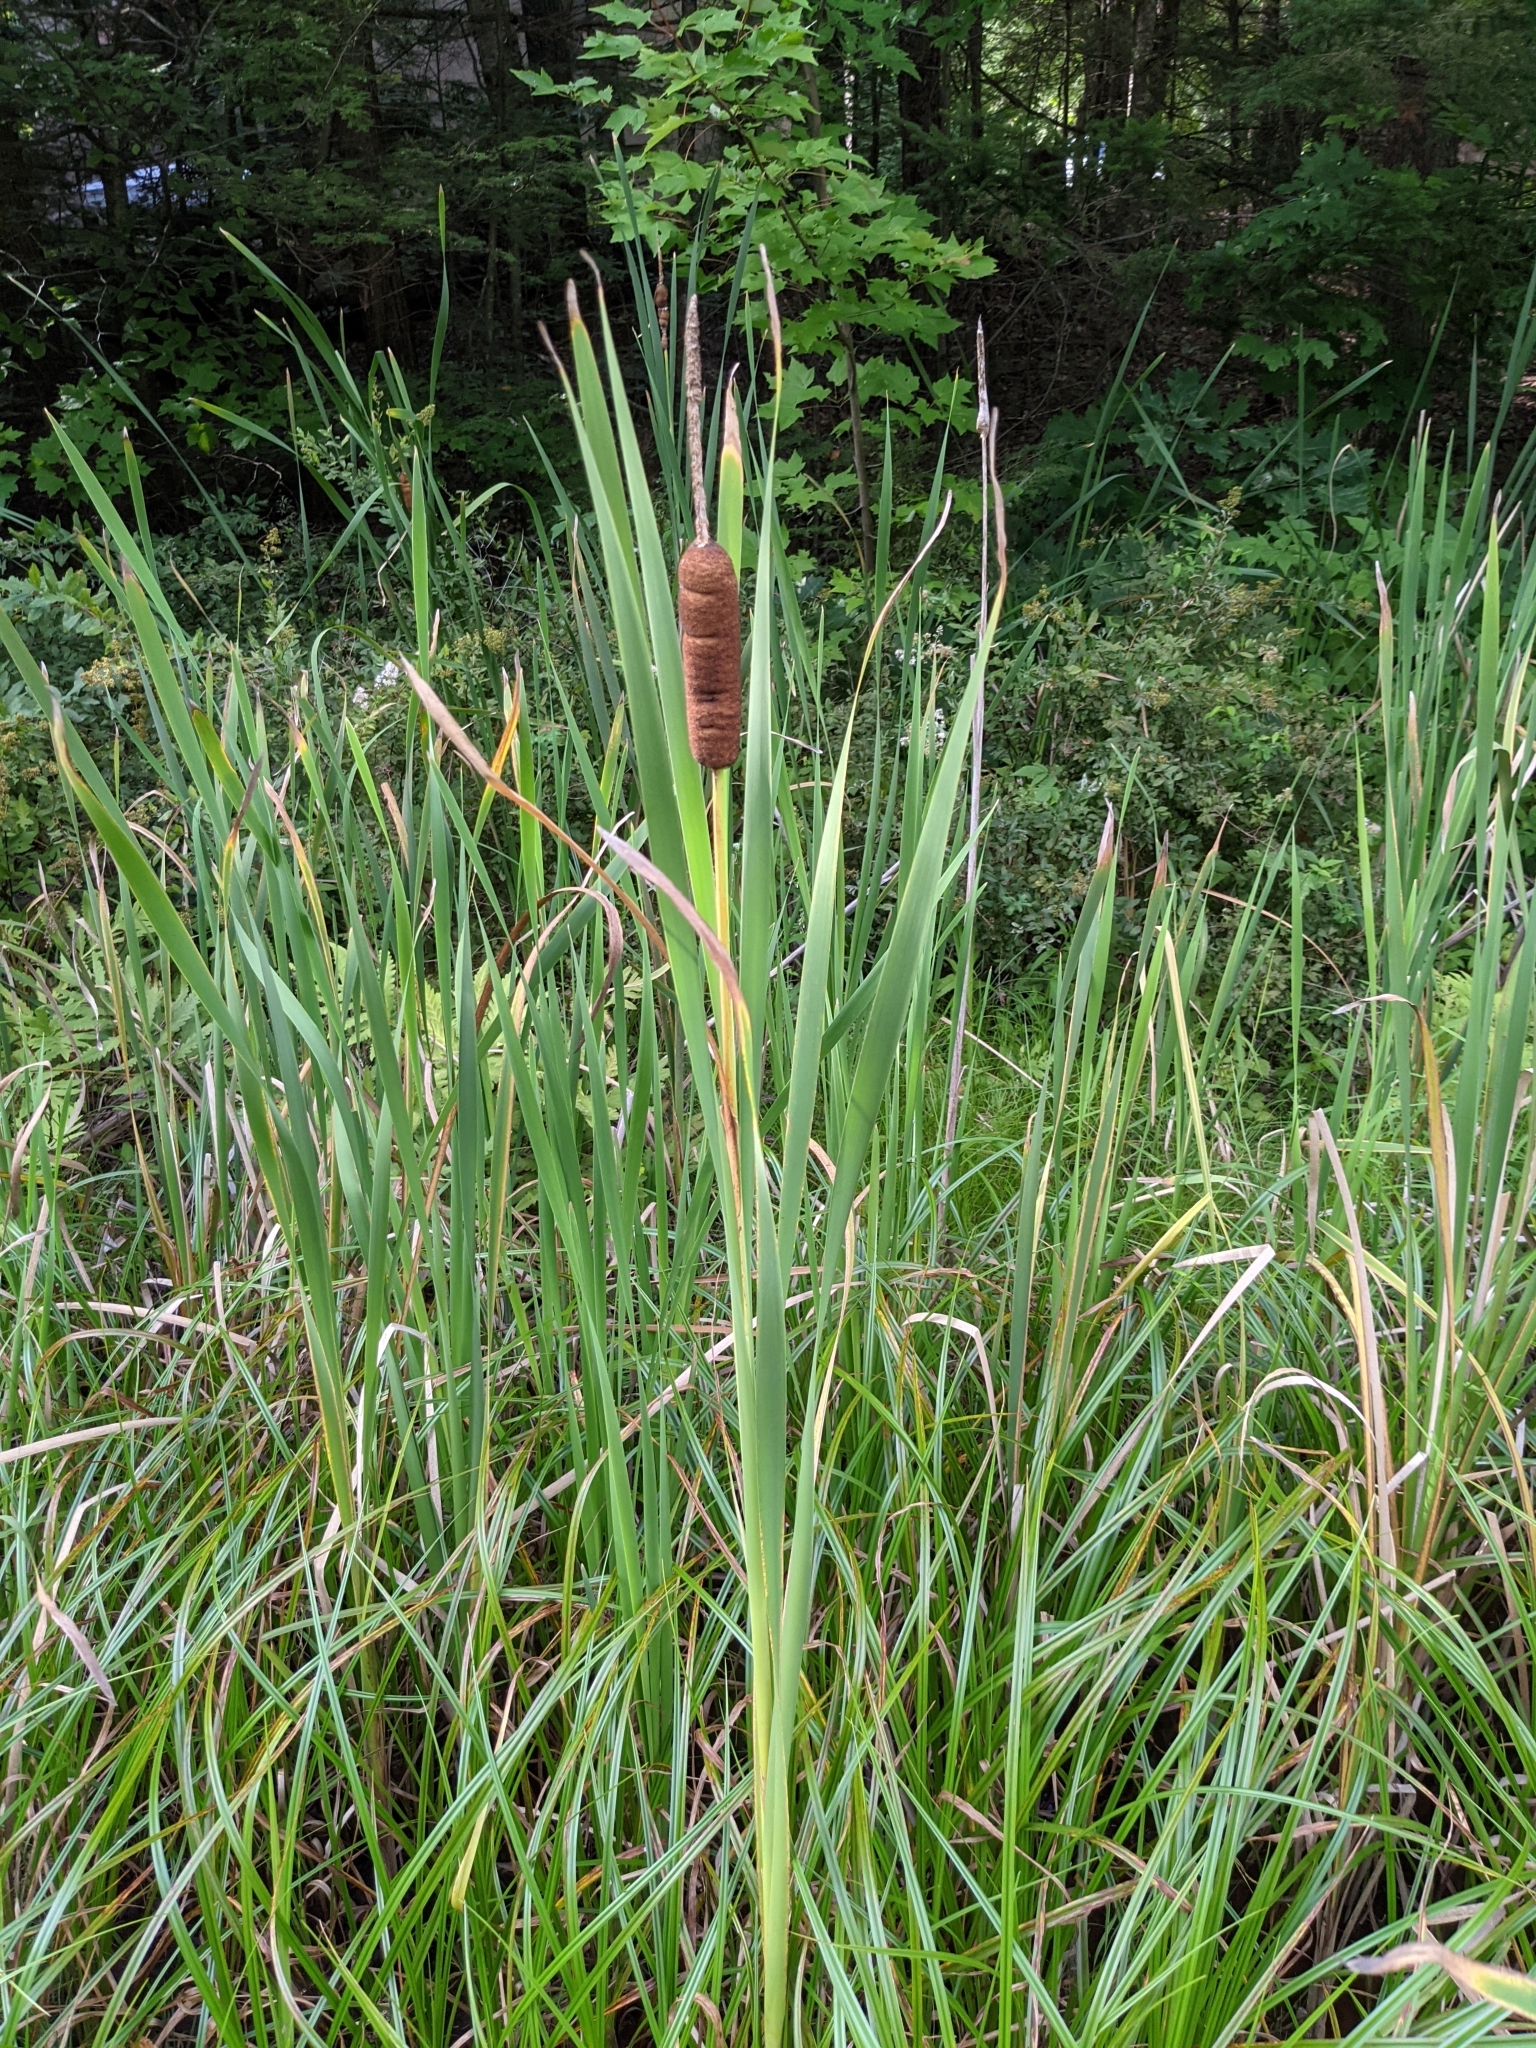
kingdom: Plantae
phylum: Tracheophyta
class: Liliopsida
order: Poales
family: Typhaceae
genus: Typha
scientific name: Typha latifolia
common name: Broadleaf cattail
